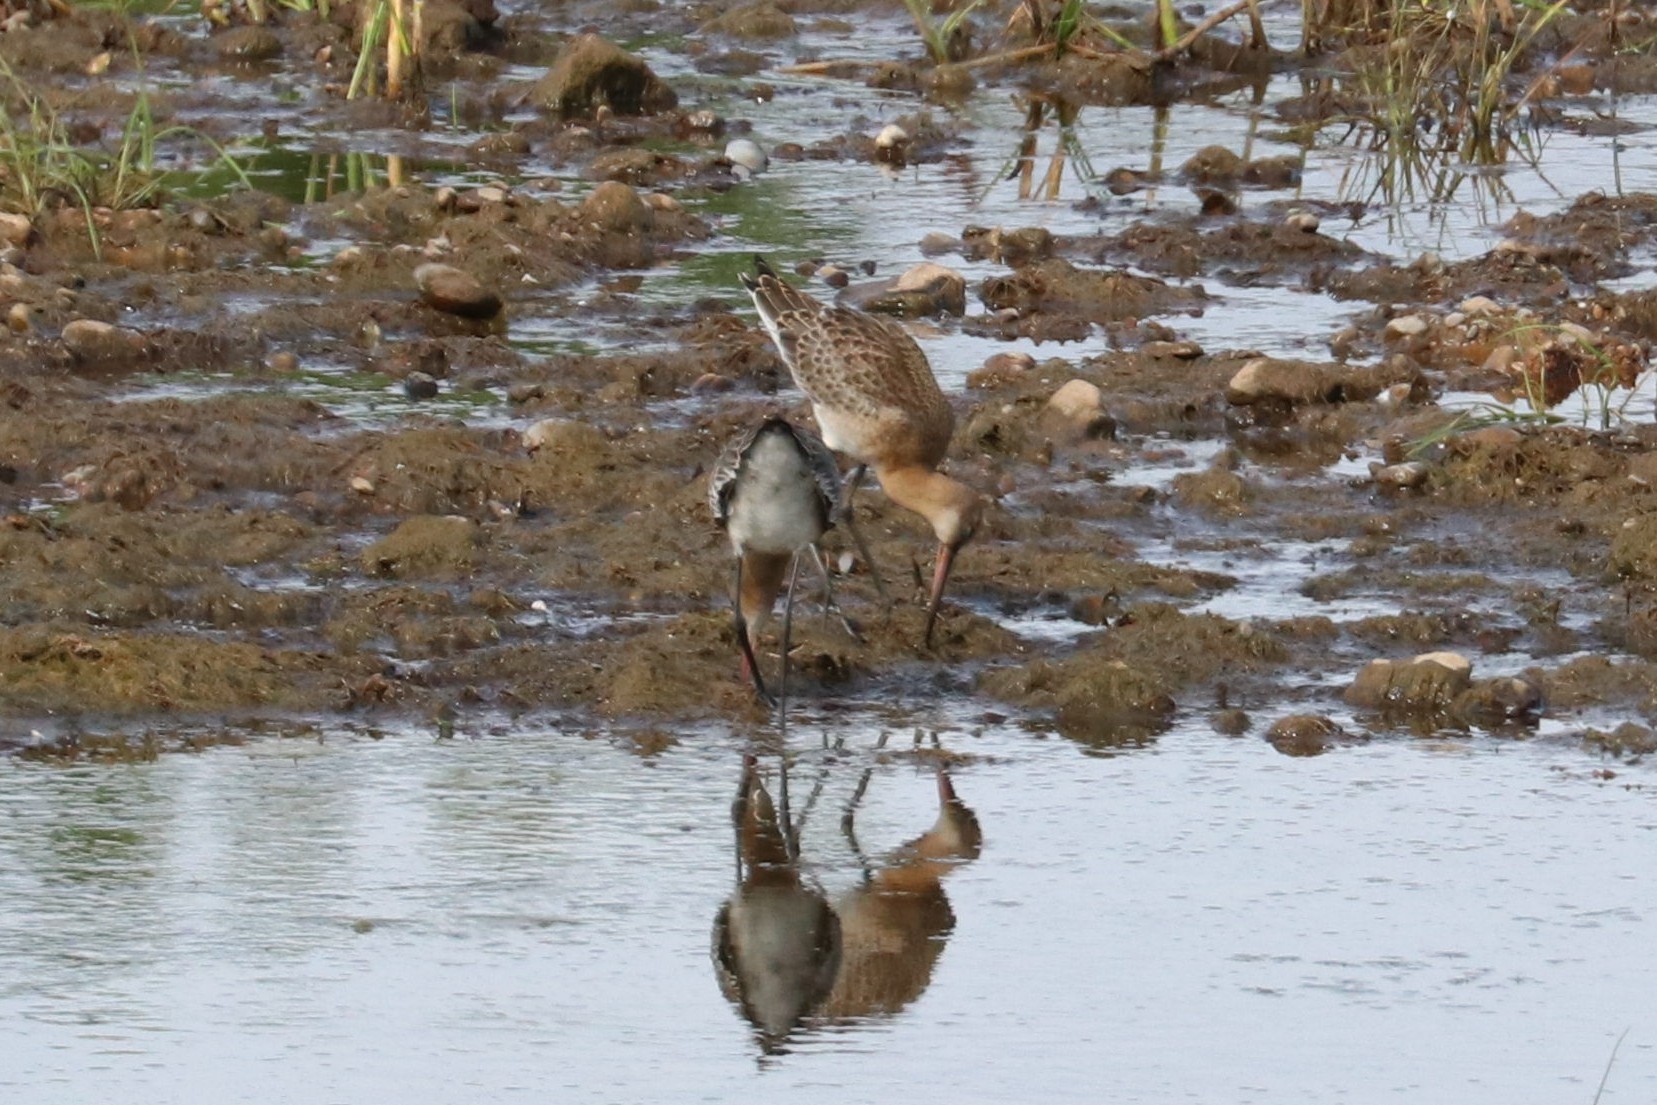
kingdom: Animalia
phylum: Chordata
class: Aves
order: Charadriiformes
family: Scolopacidae
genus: Limosa
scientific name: Limosa limosa
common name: Black-tailed godwit
